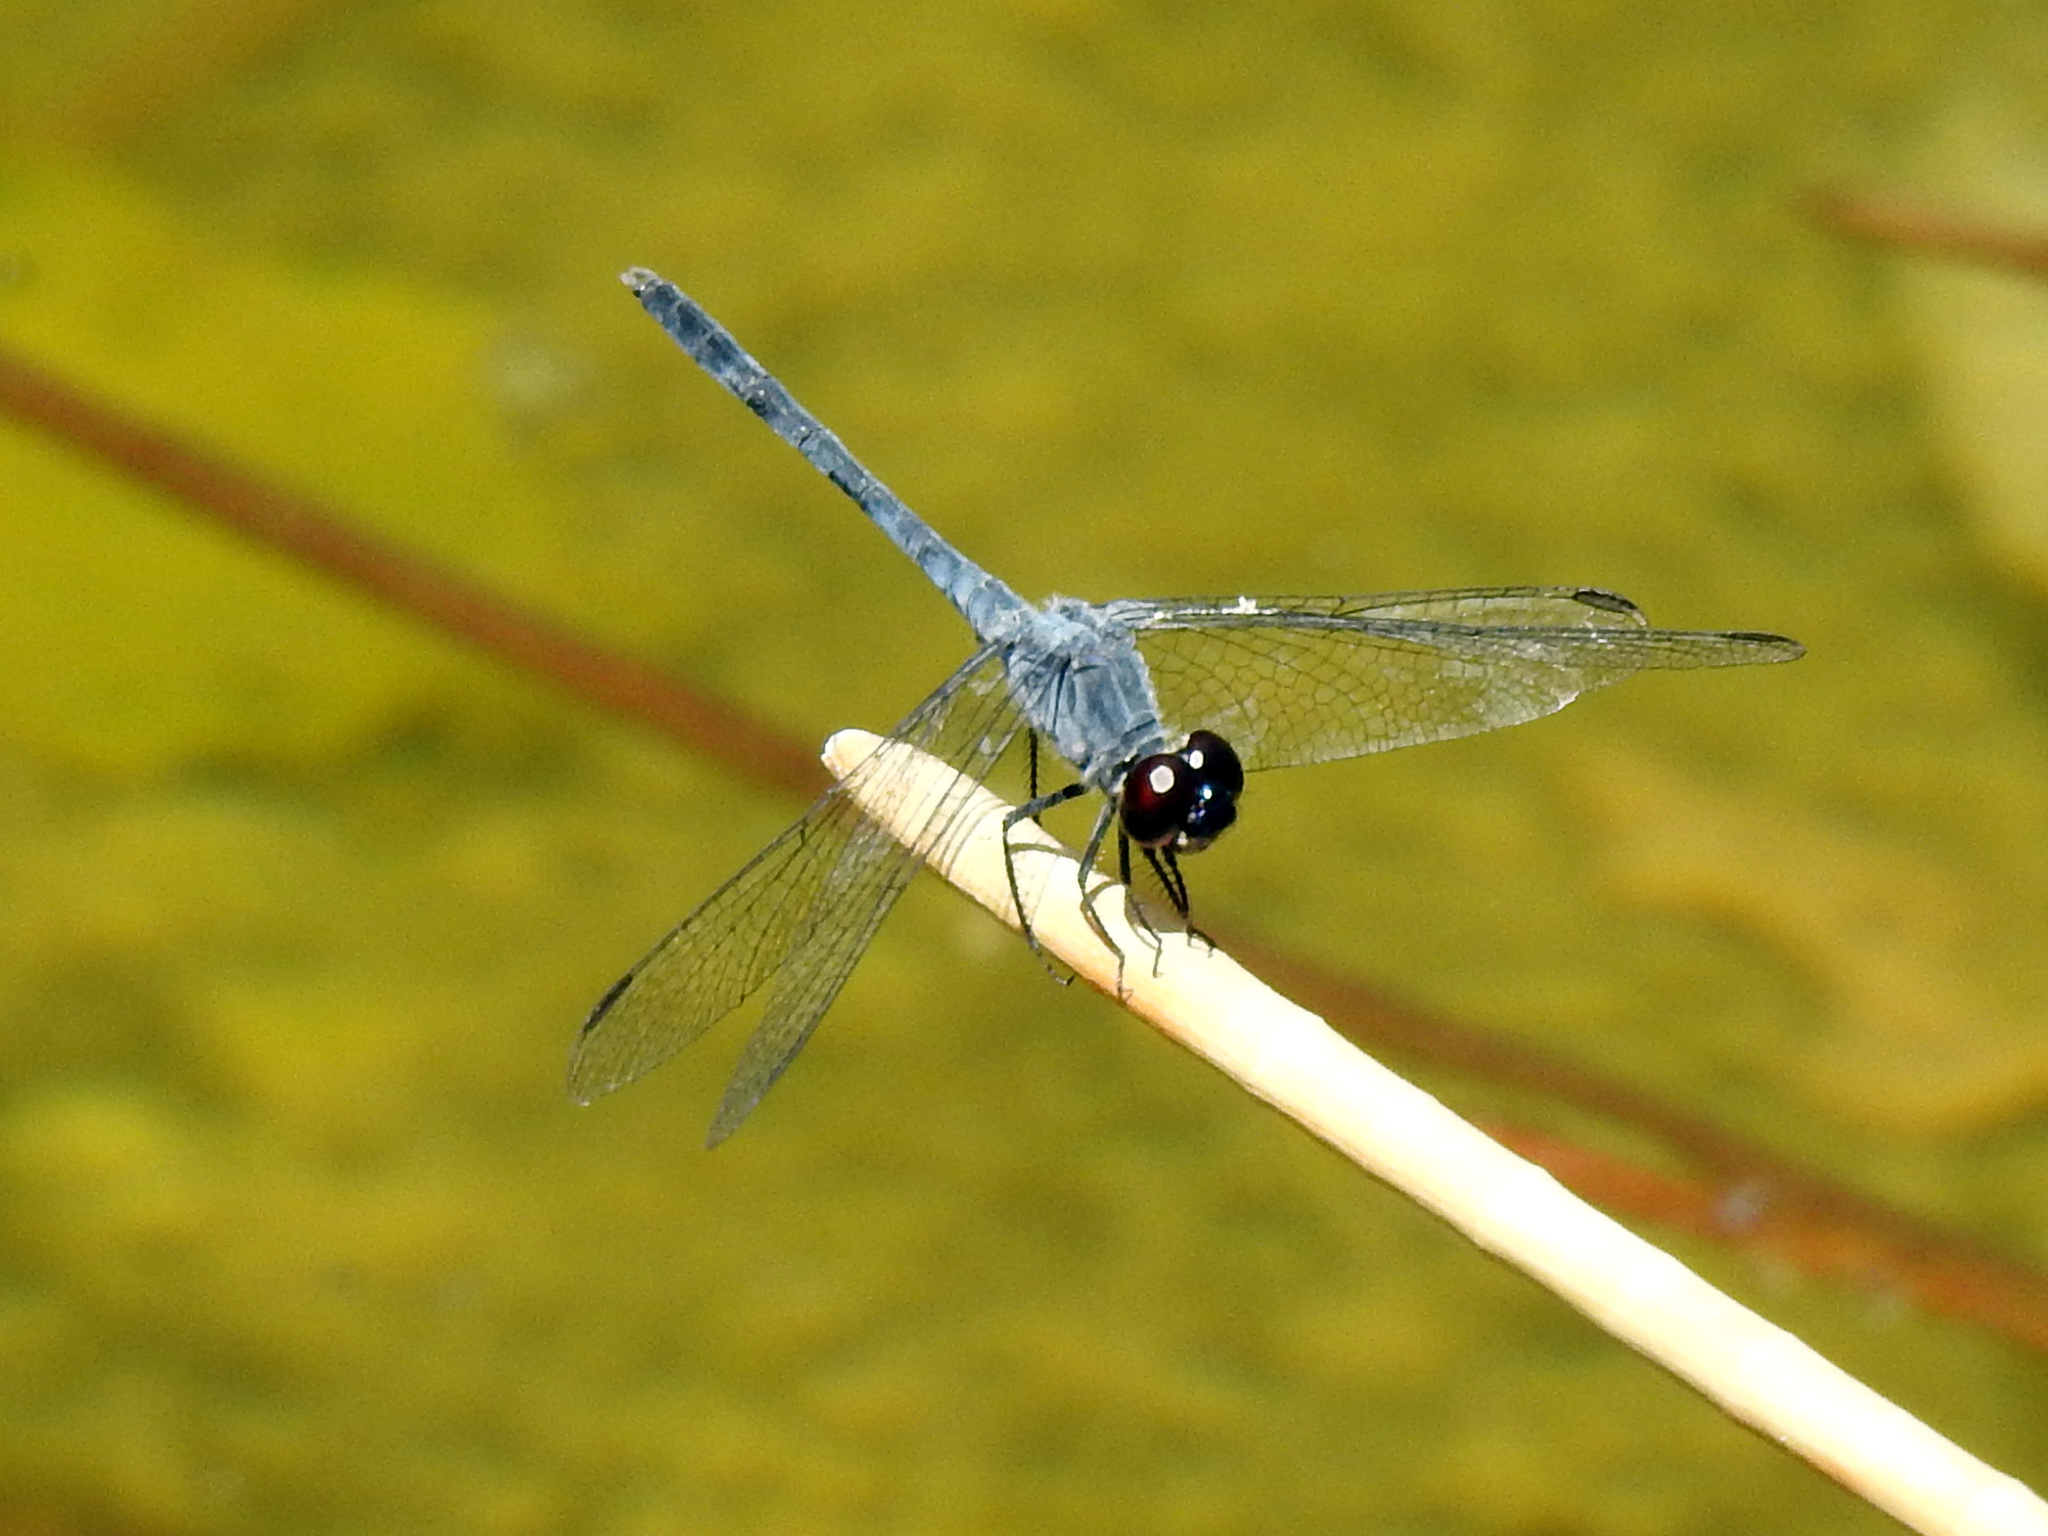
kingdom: Animalia
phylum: Arthropoda
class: Insecta
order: Odonata
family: Libellulidae
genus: Erythrodiplax
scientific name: Erythrodiplax berenice
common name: Seaside dragonlet
